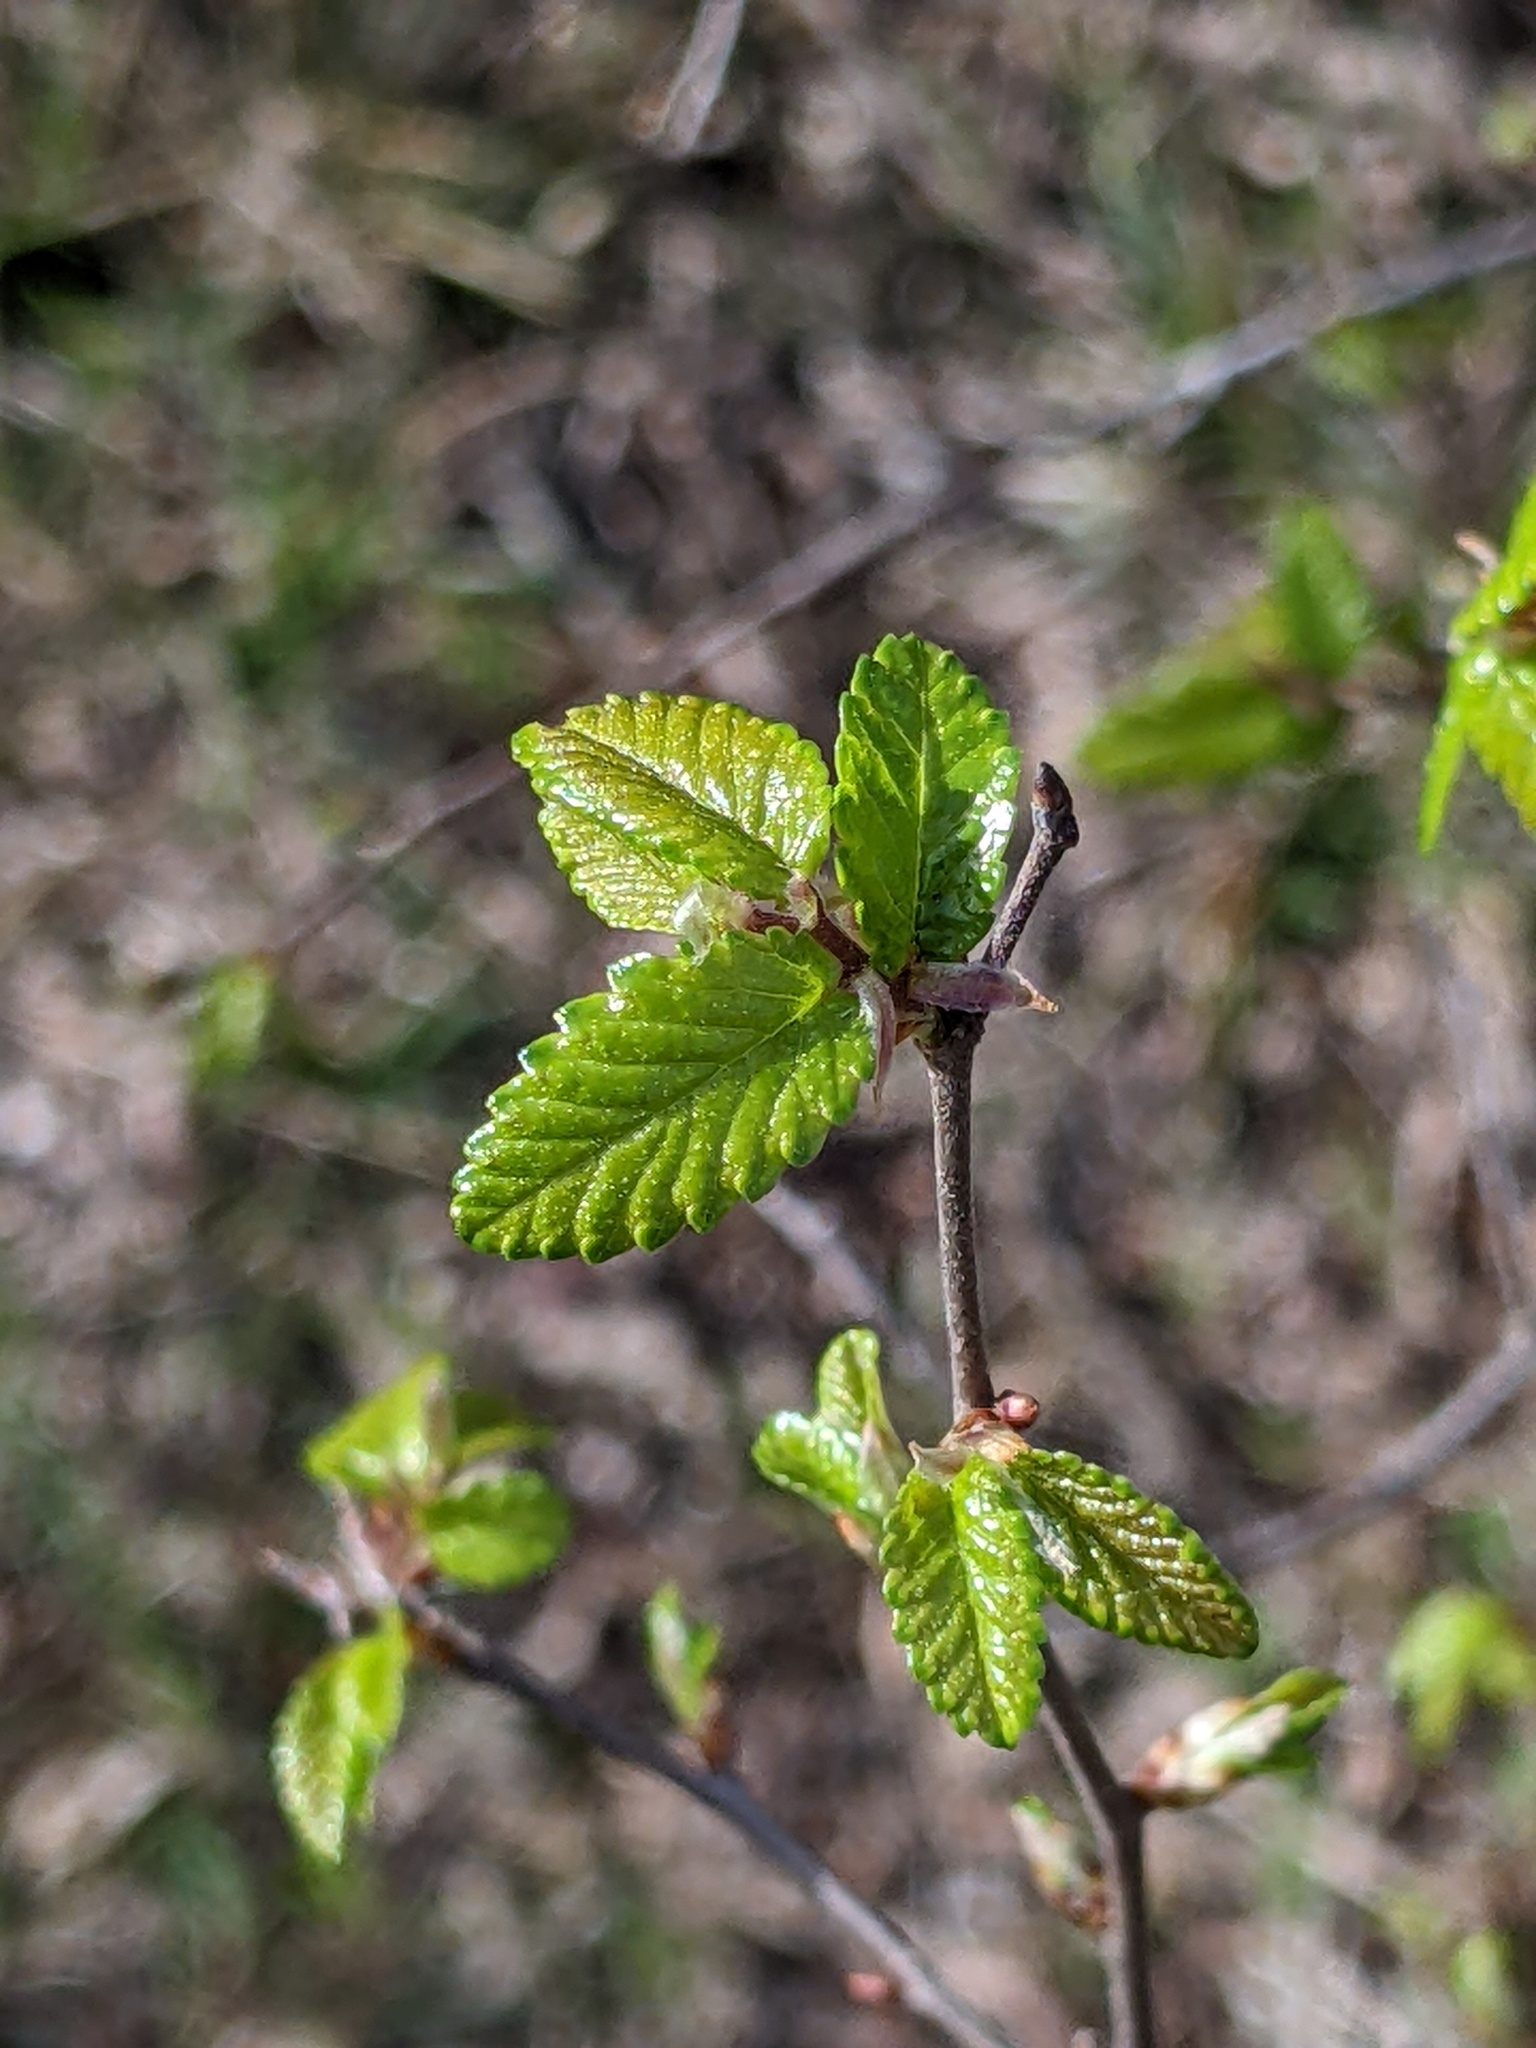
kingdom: Plantae
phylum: Tracheophyta
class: Magnoliopsida
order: Rosales
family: Ulmaceae
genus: Ulmus
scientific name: Ulmus crassifolia
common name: Basket elm
